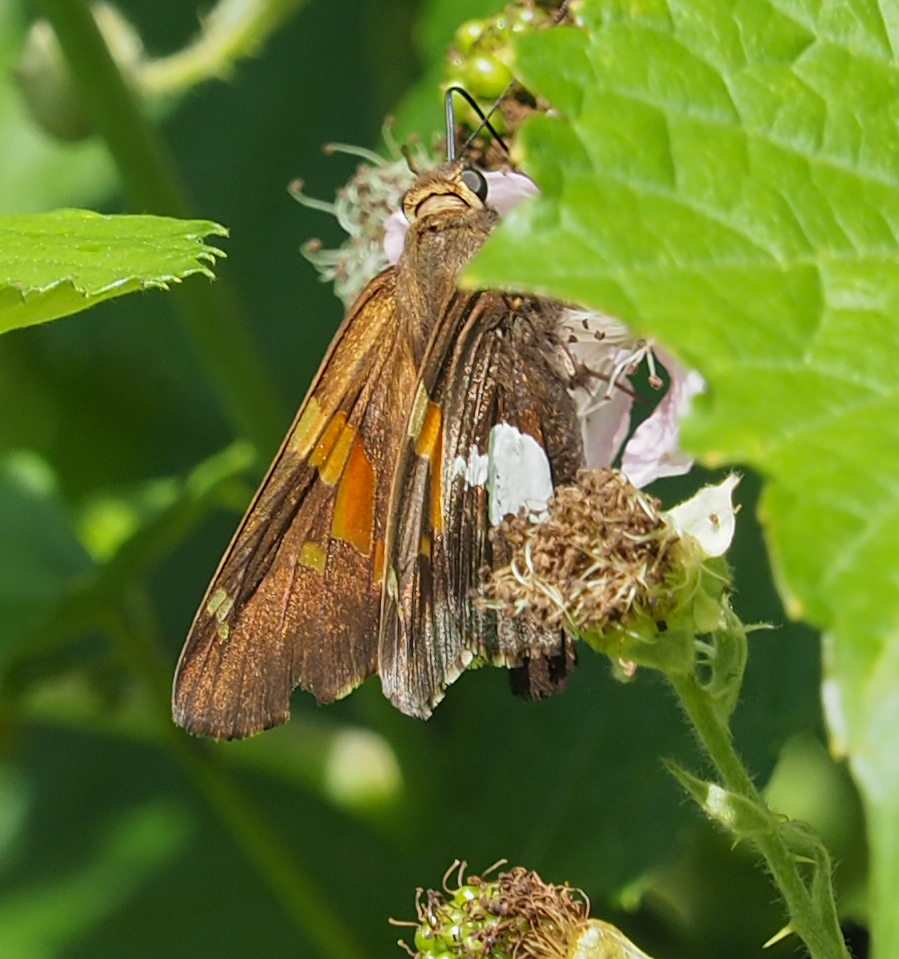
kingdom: Animalia
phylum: Arthropoda
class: Insecta
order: Lepidoptera
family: Hesperiidae
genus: Epargyreus
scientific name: Epargyreus clarus
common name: Silver-spotted skipper
